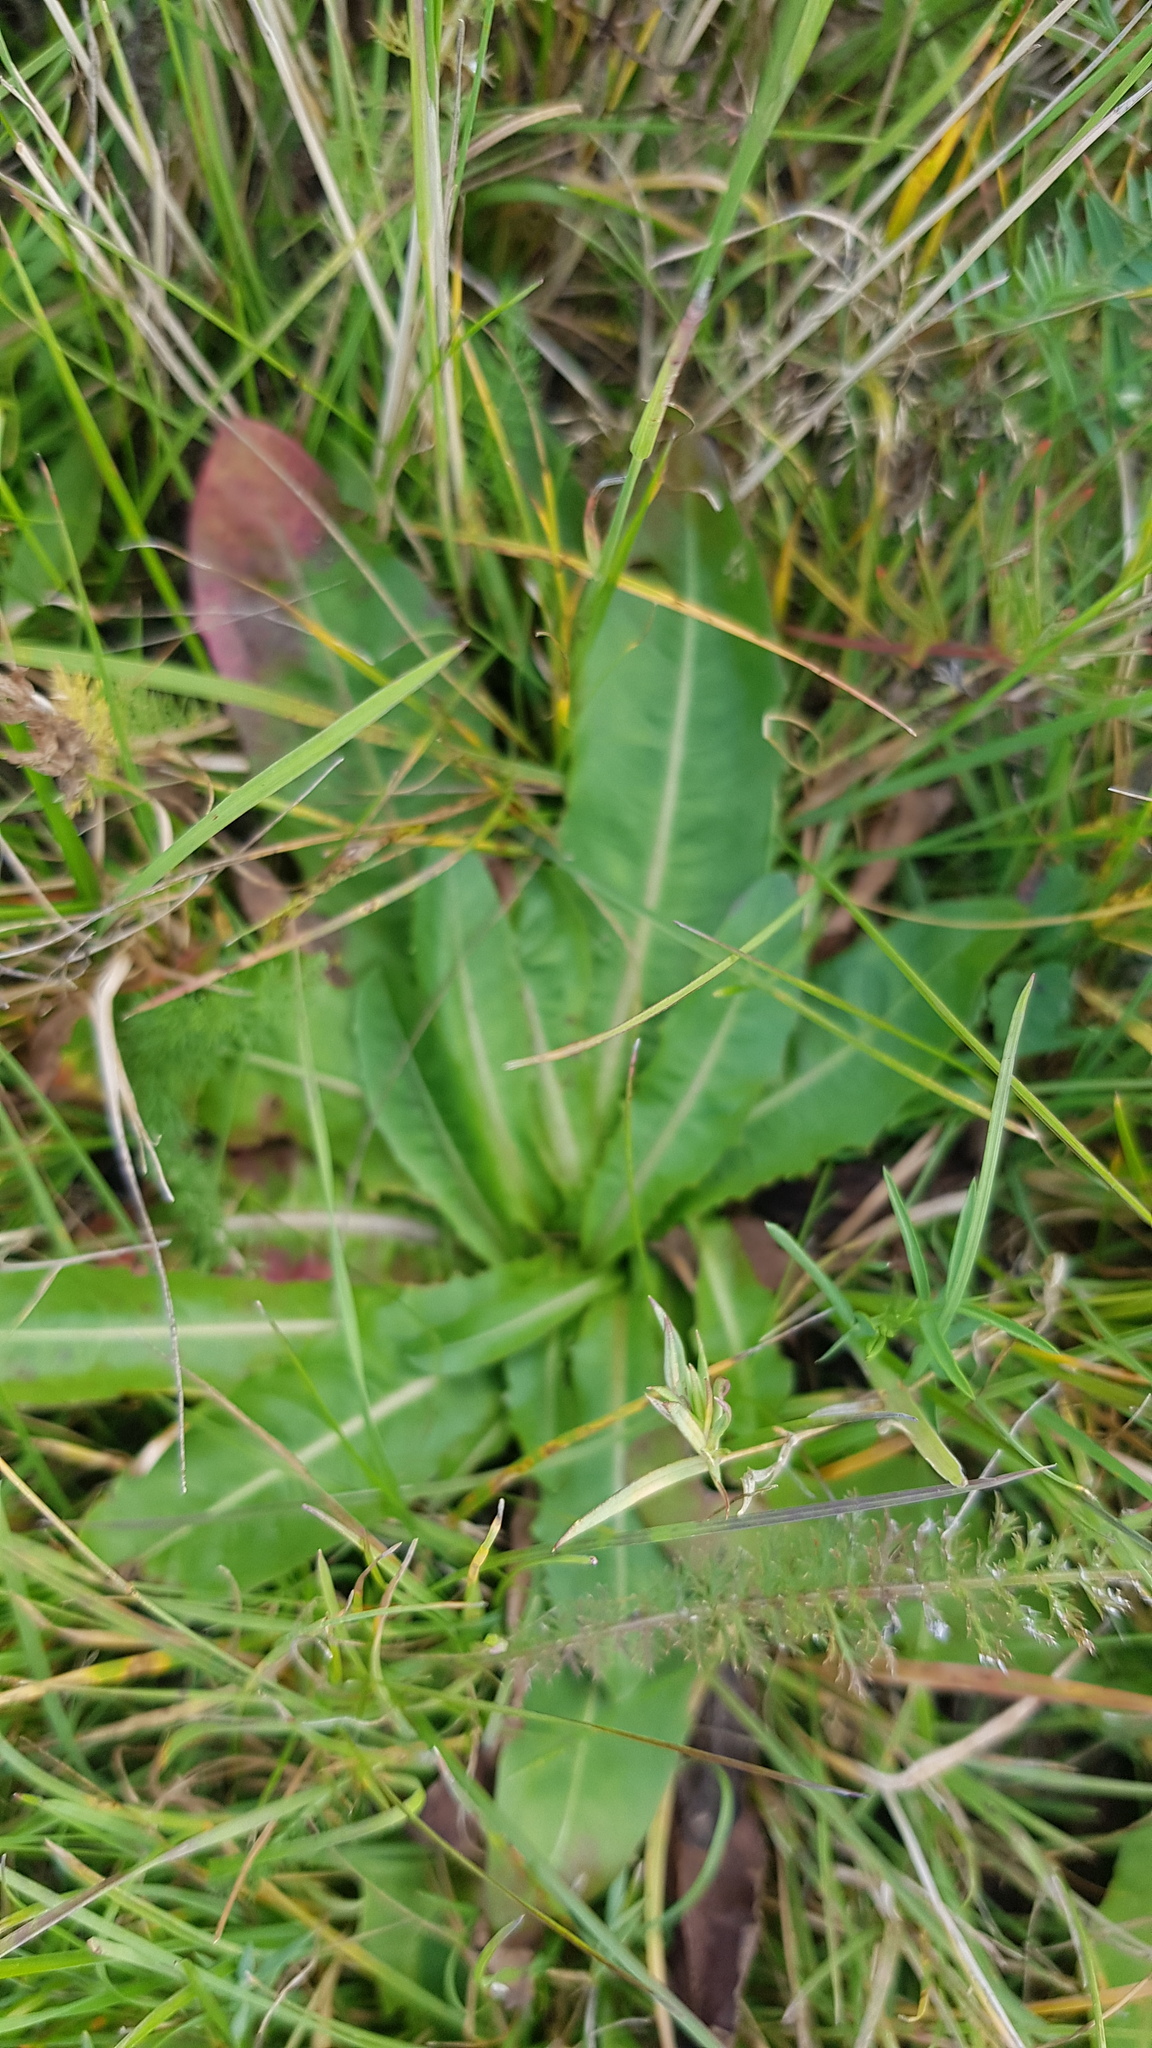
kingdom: Plantae
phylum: Tracheophyta
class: Magnoliopsida
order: Asterales
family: Asteraceae
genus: Cirsium
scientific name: Cirsium esculentum
